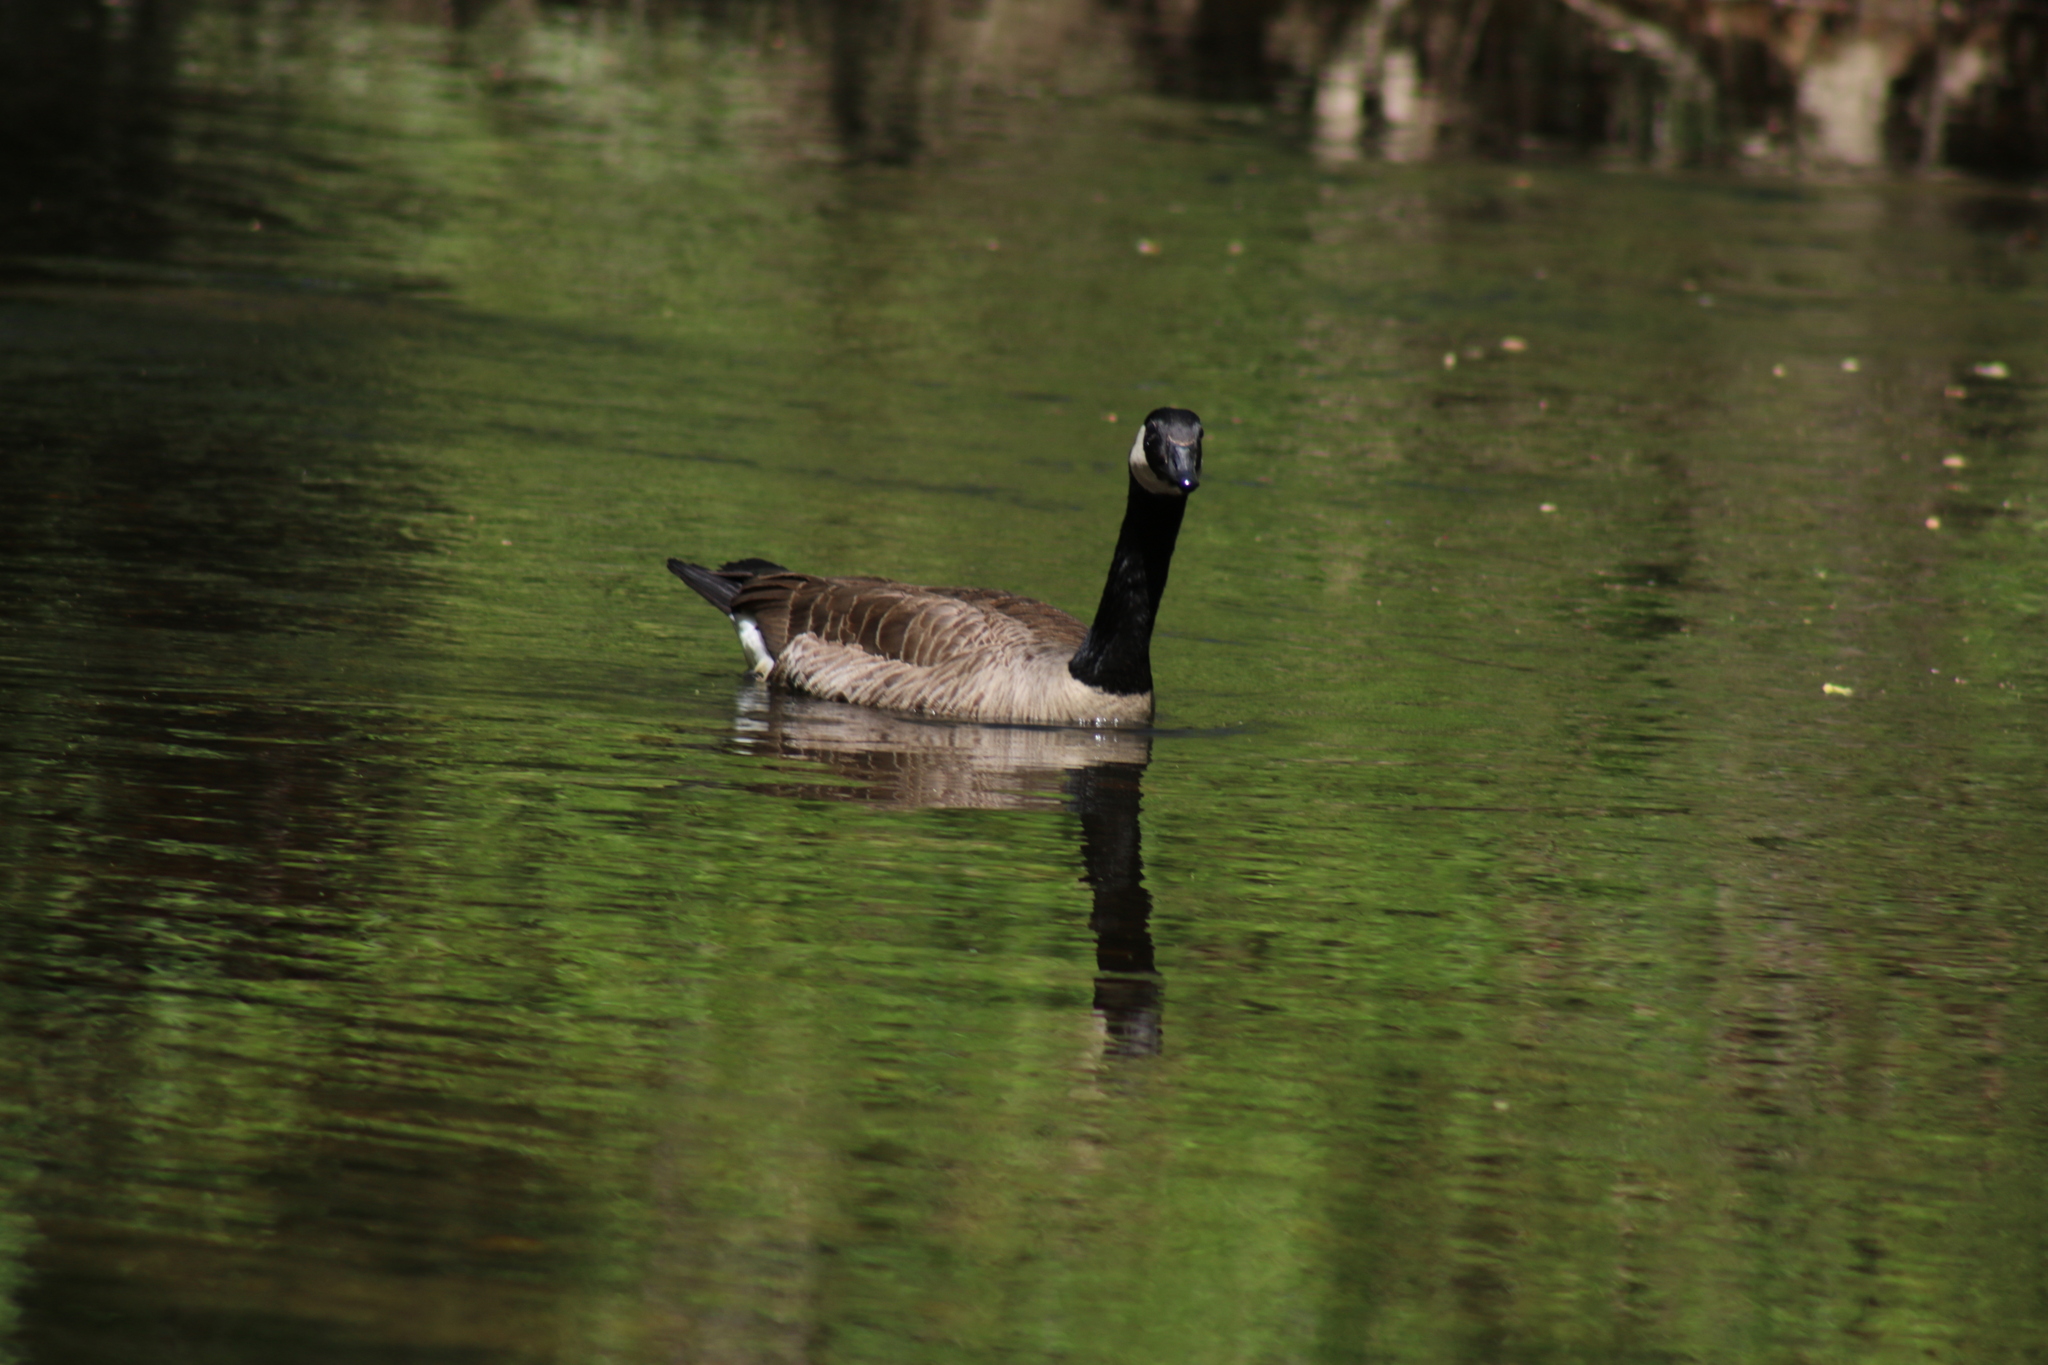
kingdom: Animalia
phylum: Chordata
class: Aves
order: Anseriformes
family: Anatidae
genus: Branta
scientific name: Branta canadensis
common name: Canada goose
